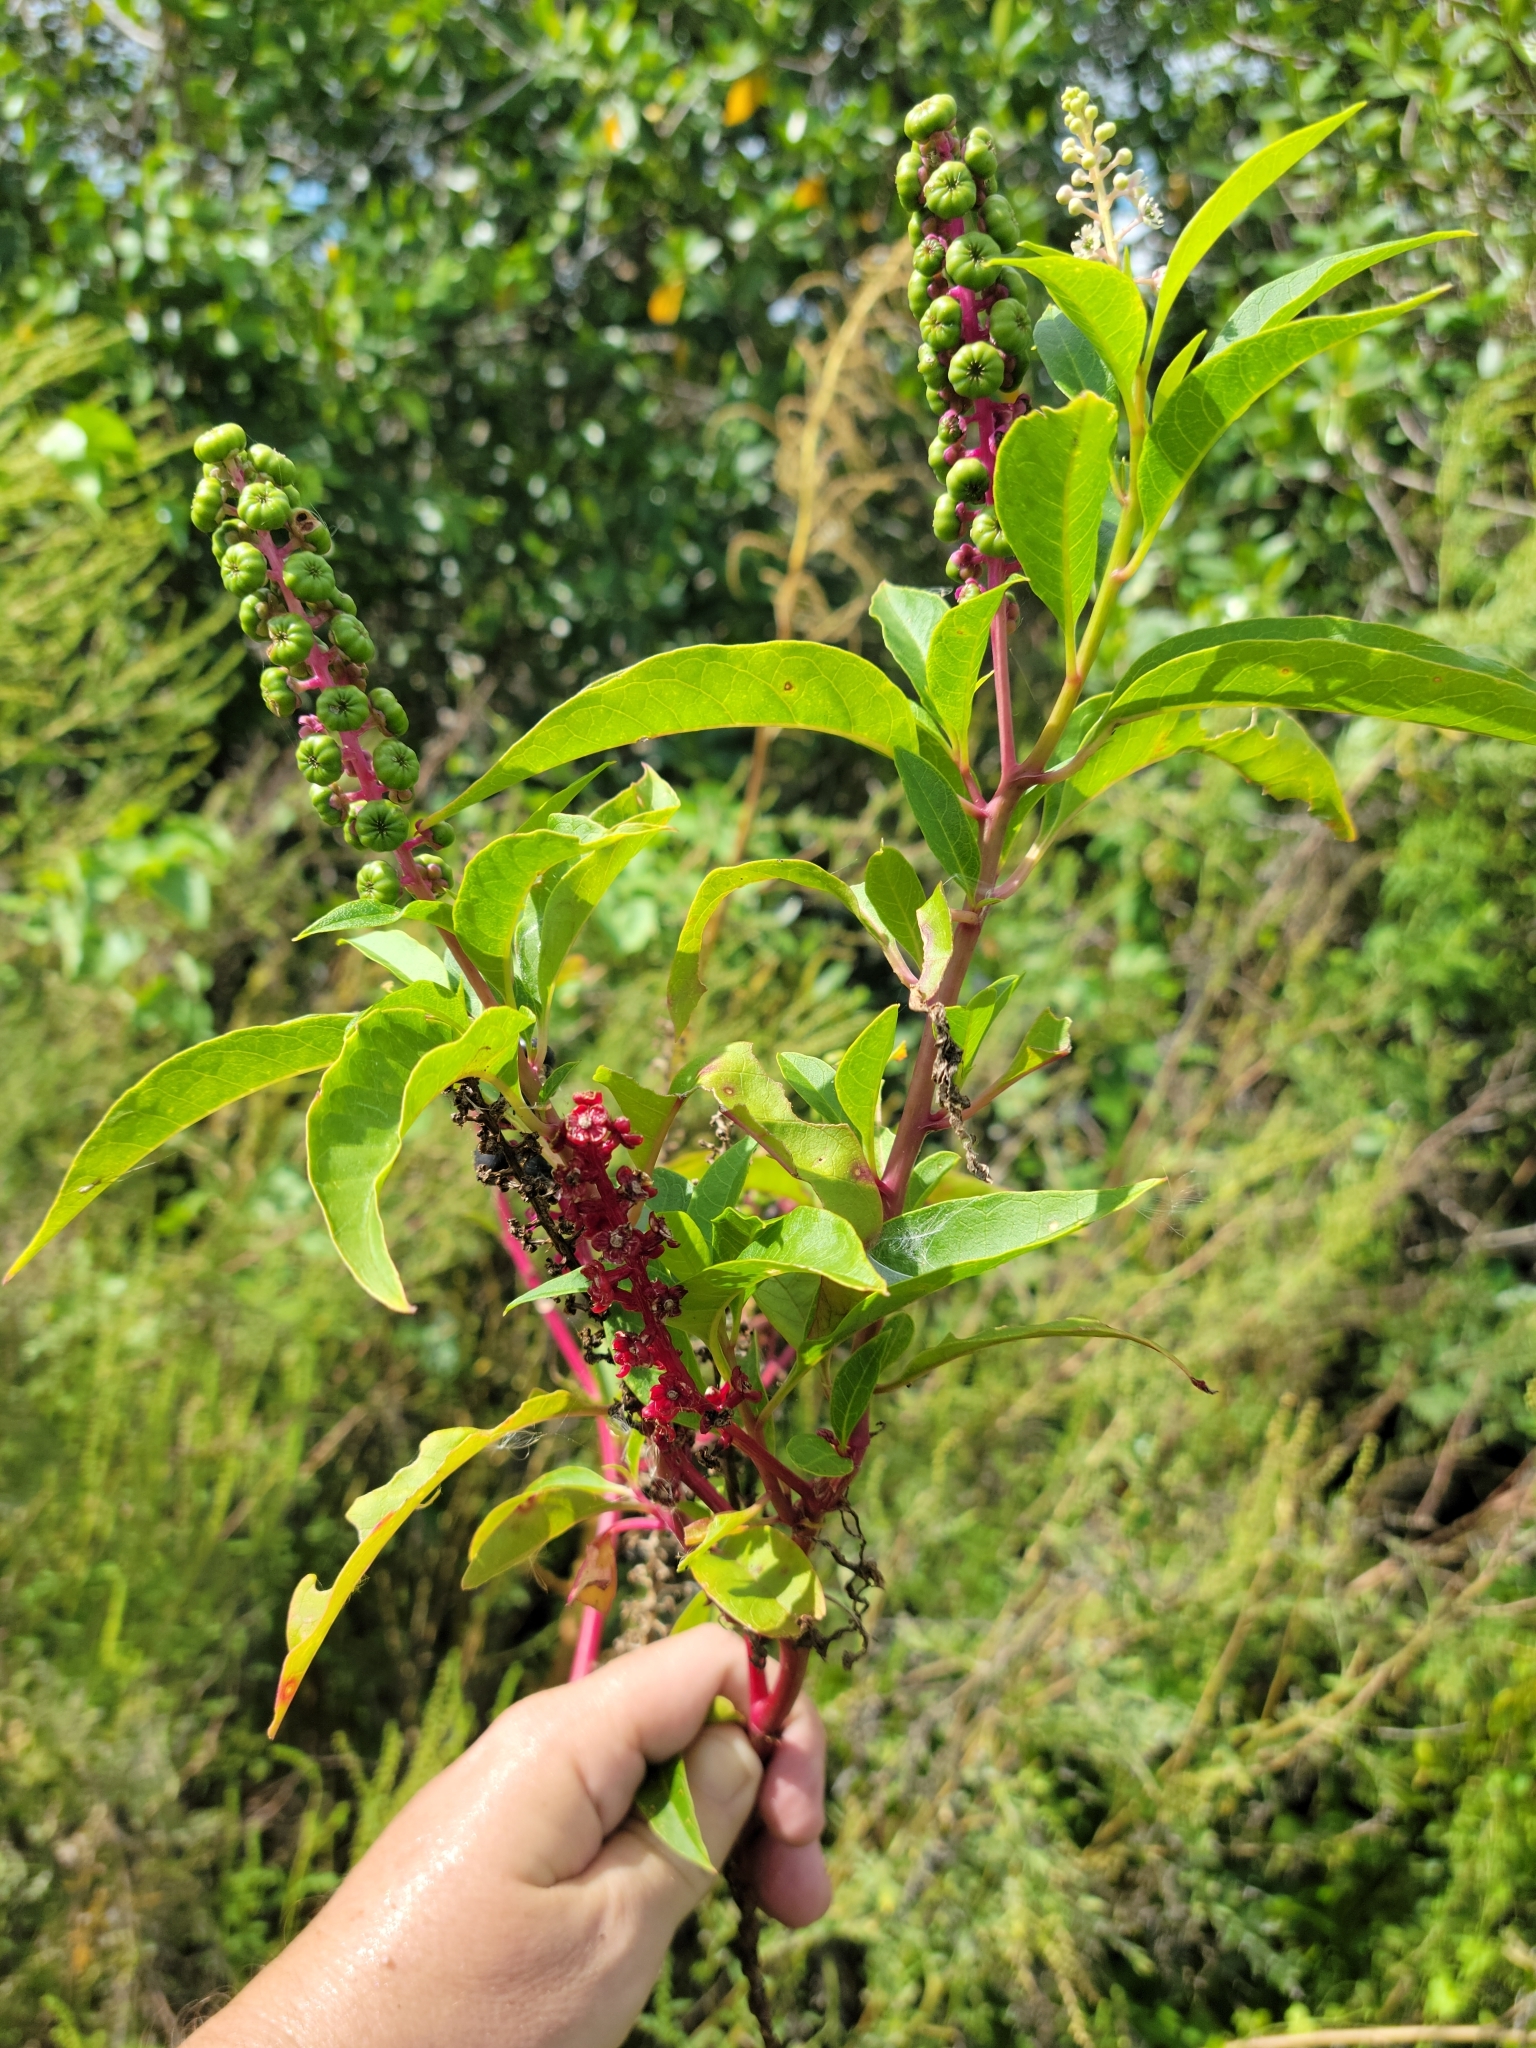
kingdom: Plantae
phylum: Tracheophyta
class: Magnoliopsida
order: Caryophyllales
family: Phytolaccaceae
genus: Phytolacca
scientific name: Phytolacca americana
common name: American pokeweed
